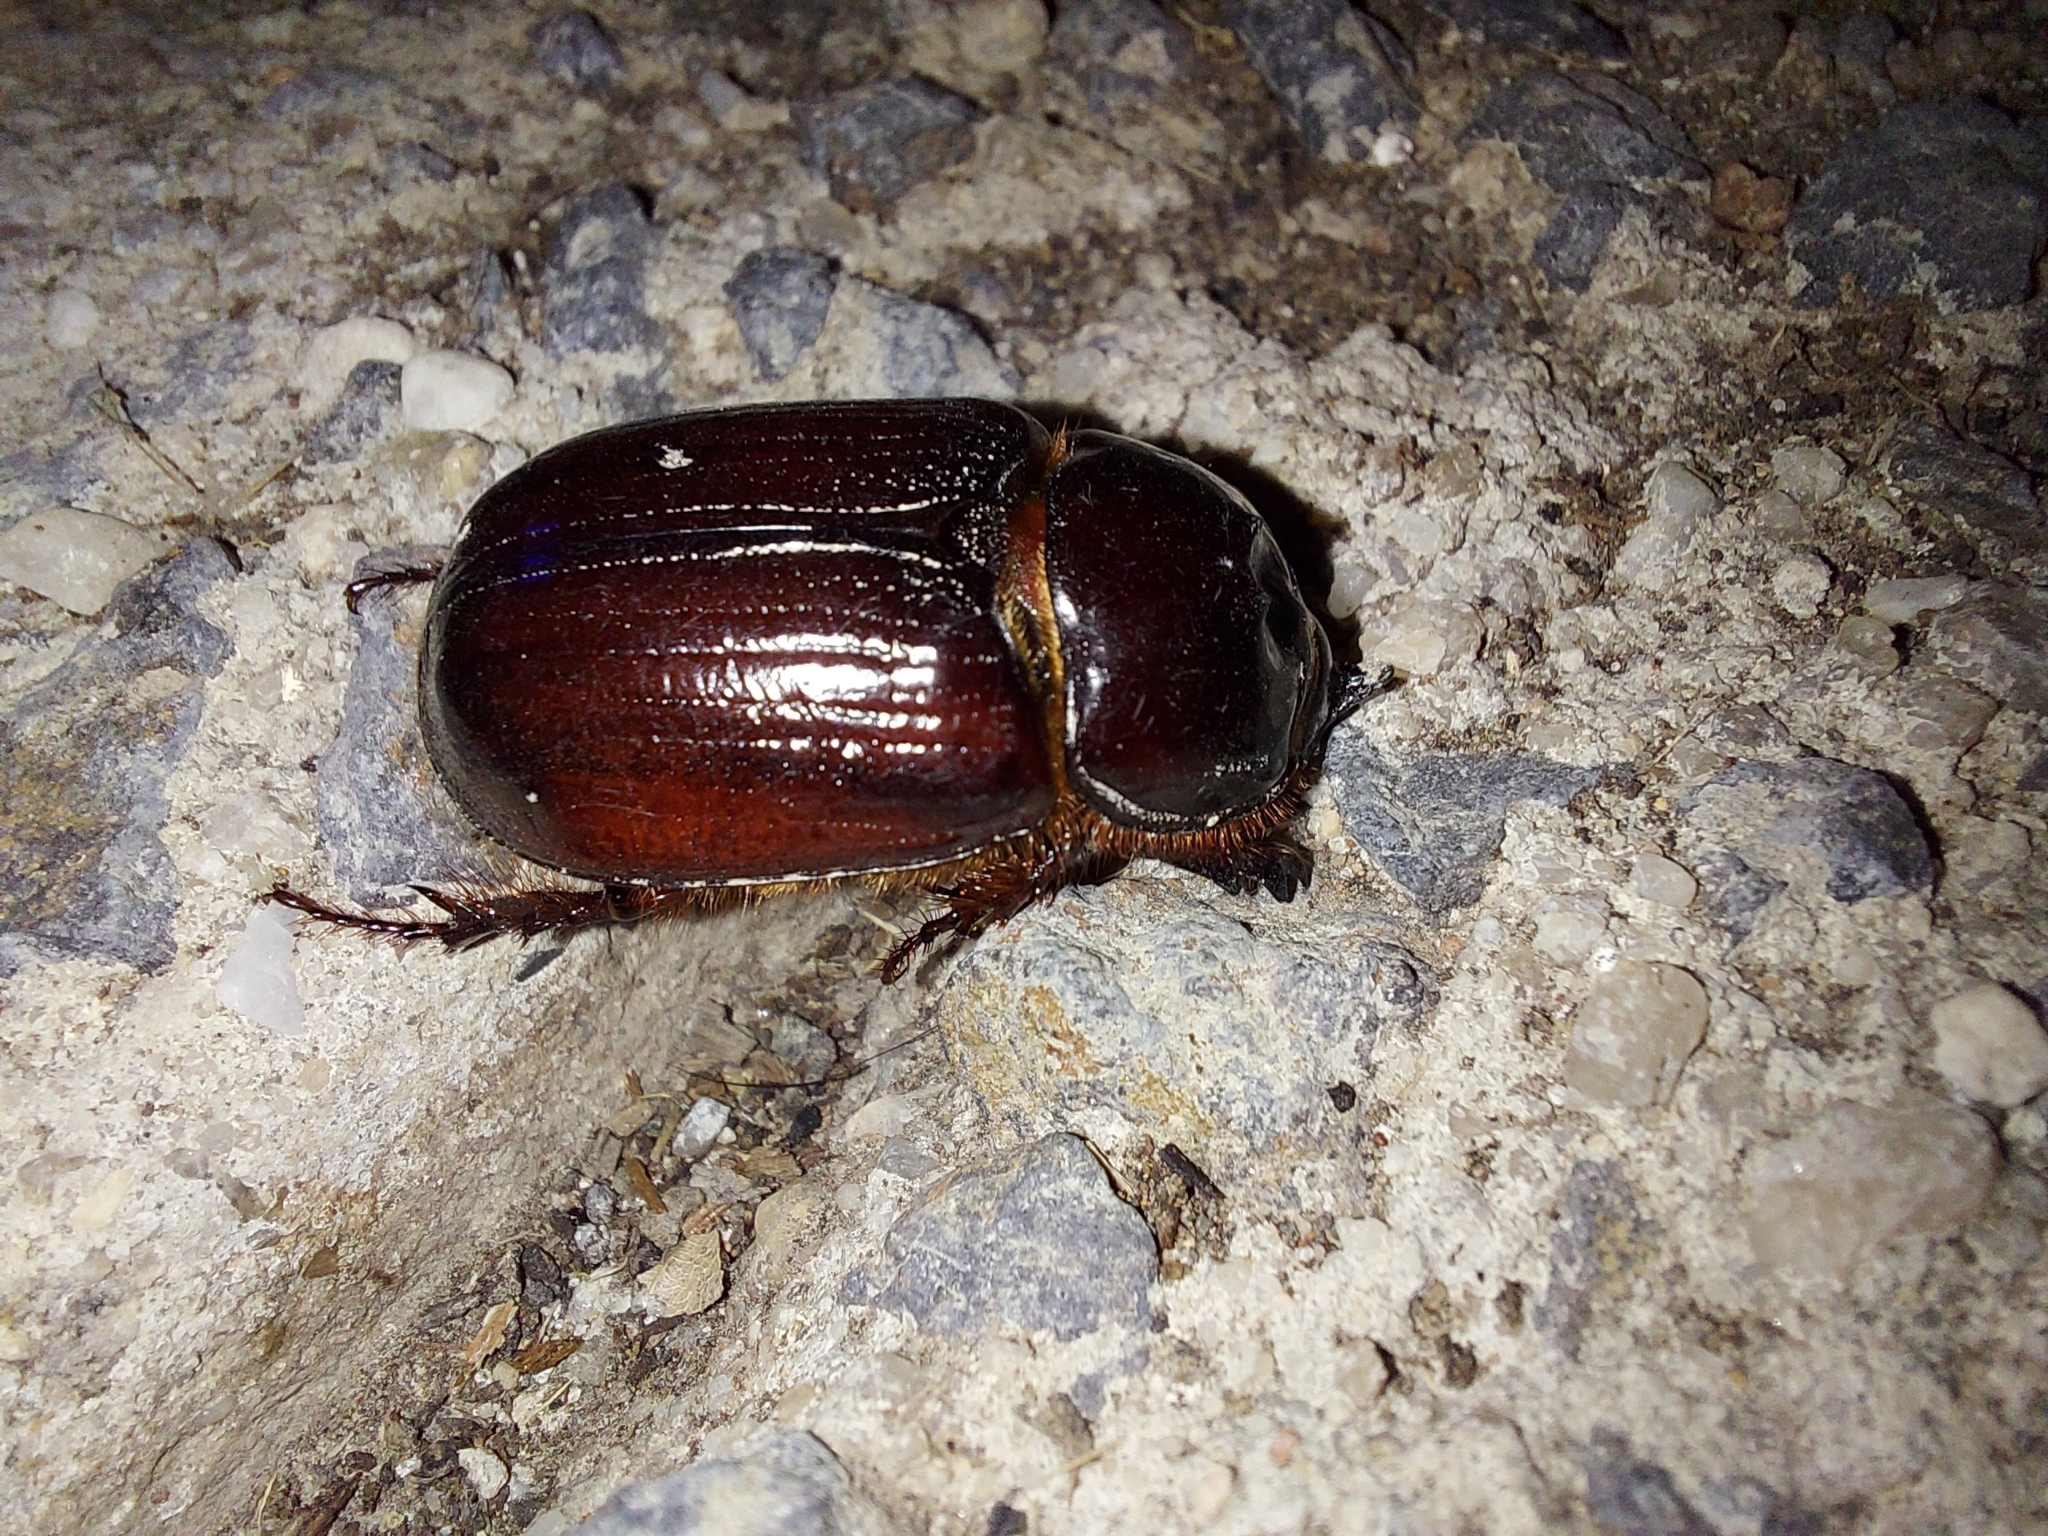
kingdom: Animalia
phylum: Arthropoda
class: Insecta
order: Coleoptera
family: Scarabaeidae
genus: Dasygnathus
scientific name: Dasygnathus trituberculatus
